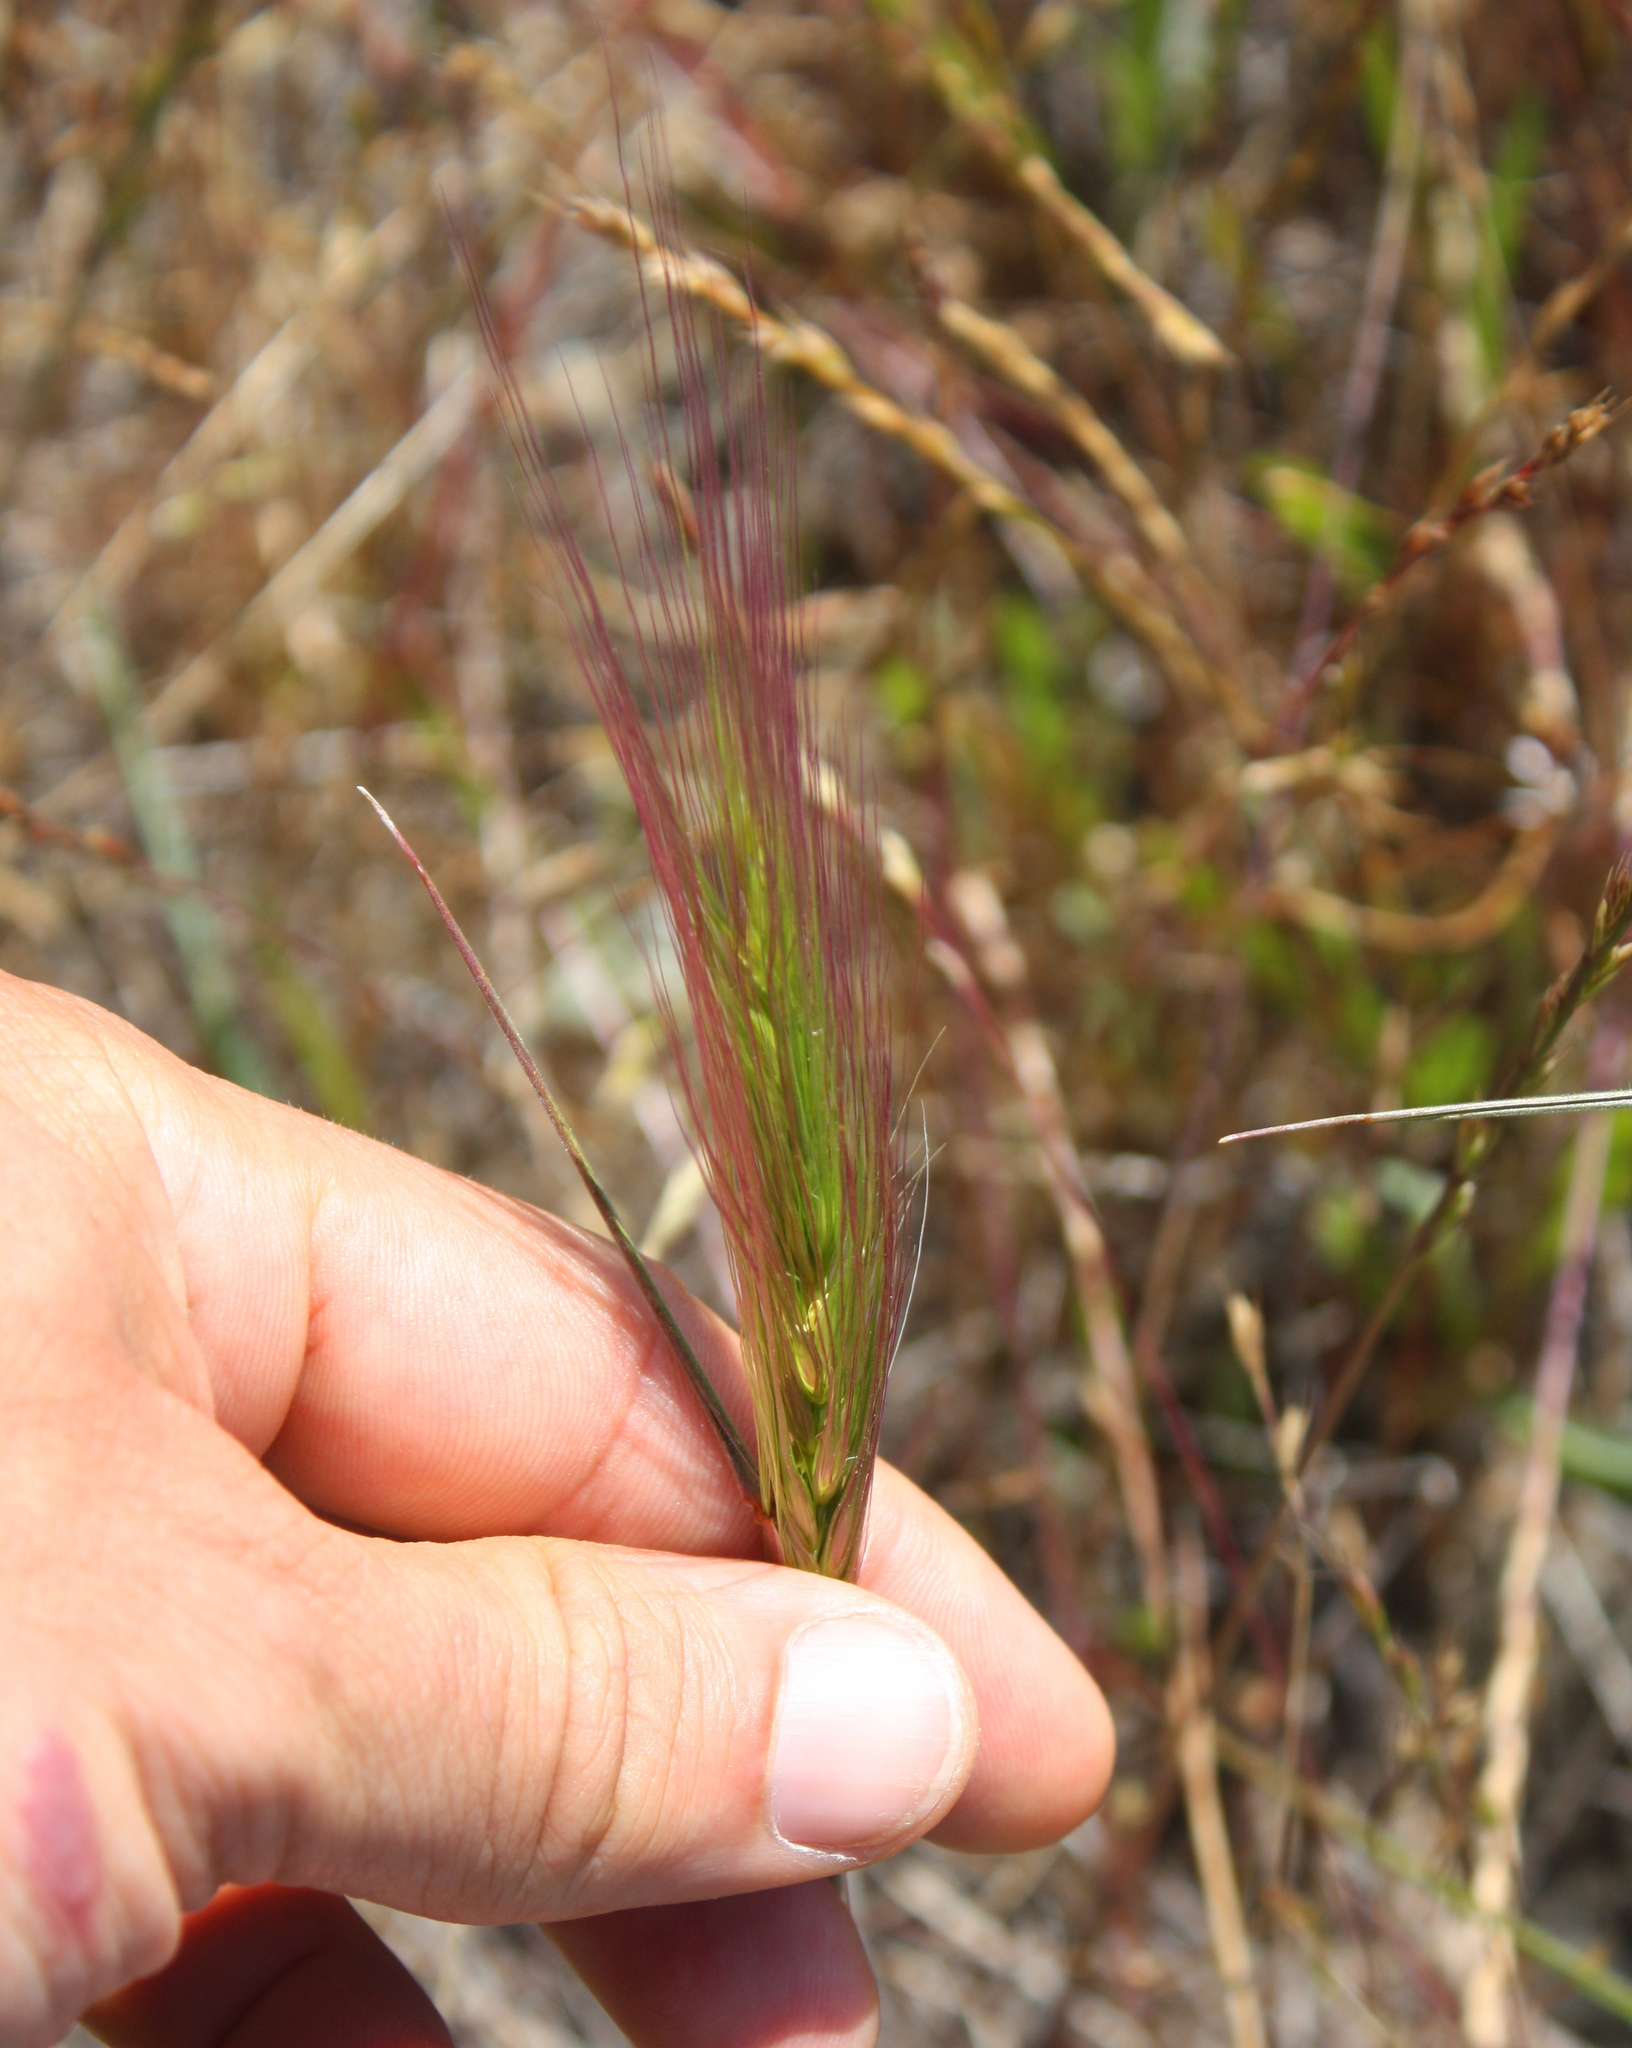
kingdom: Plantae
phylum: Tracheophyta
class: Liliopsida
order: Poales
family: Poaceae
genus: Elymus
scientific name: Elymus multisetus
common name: Big squirreltail
